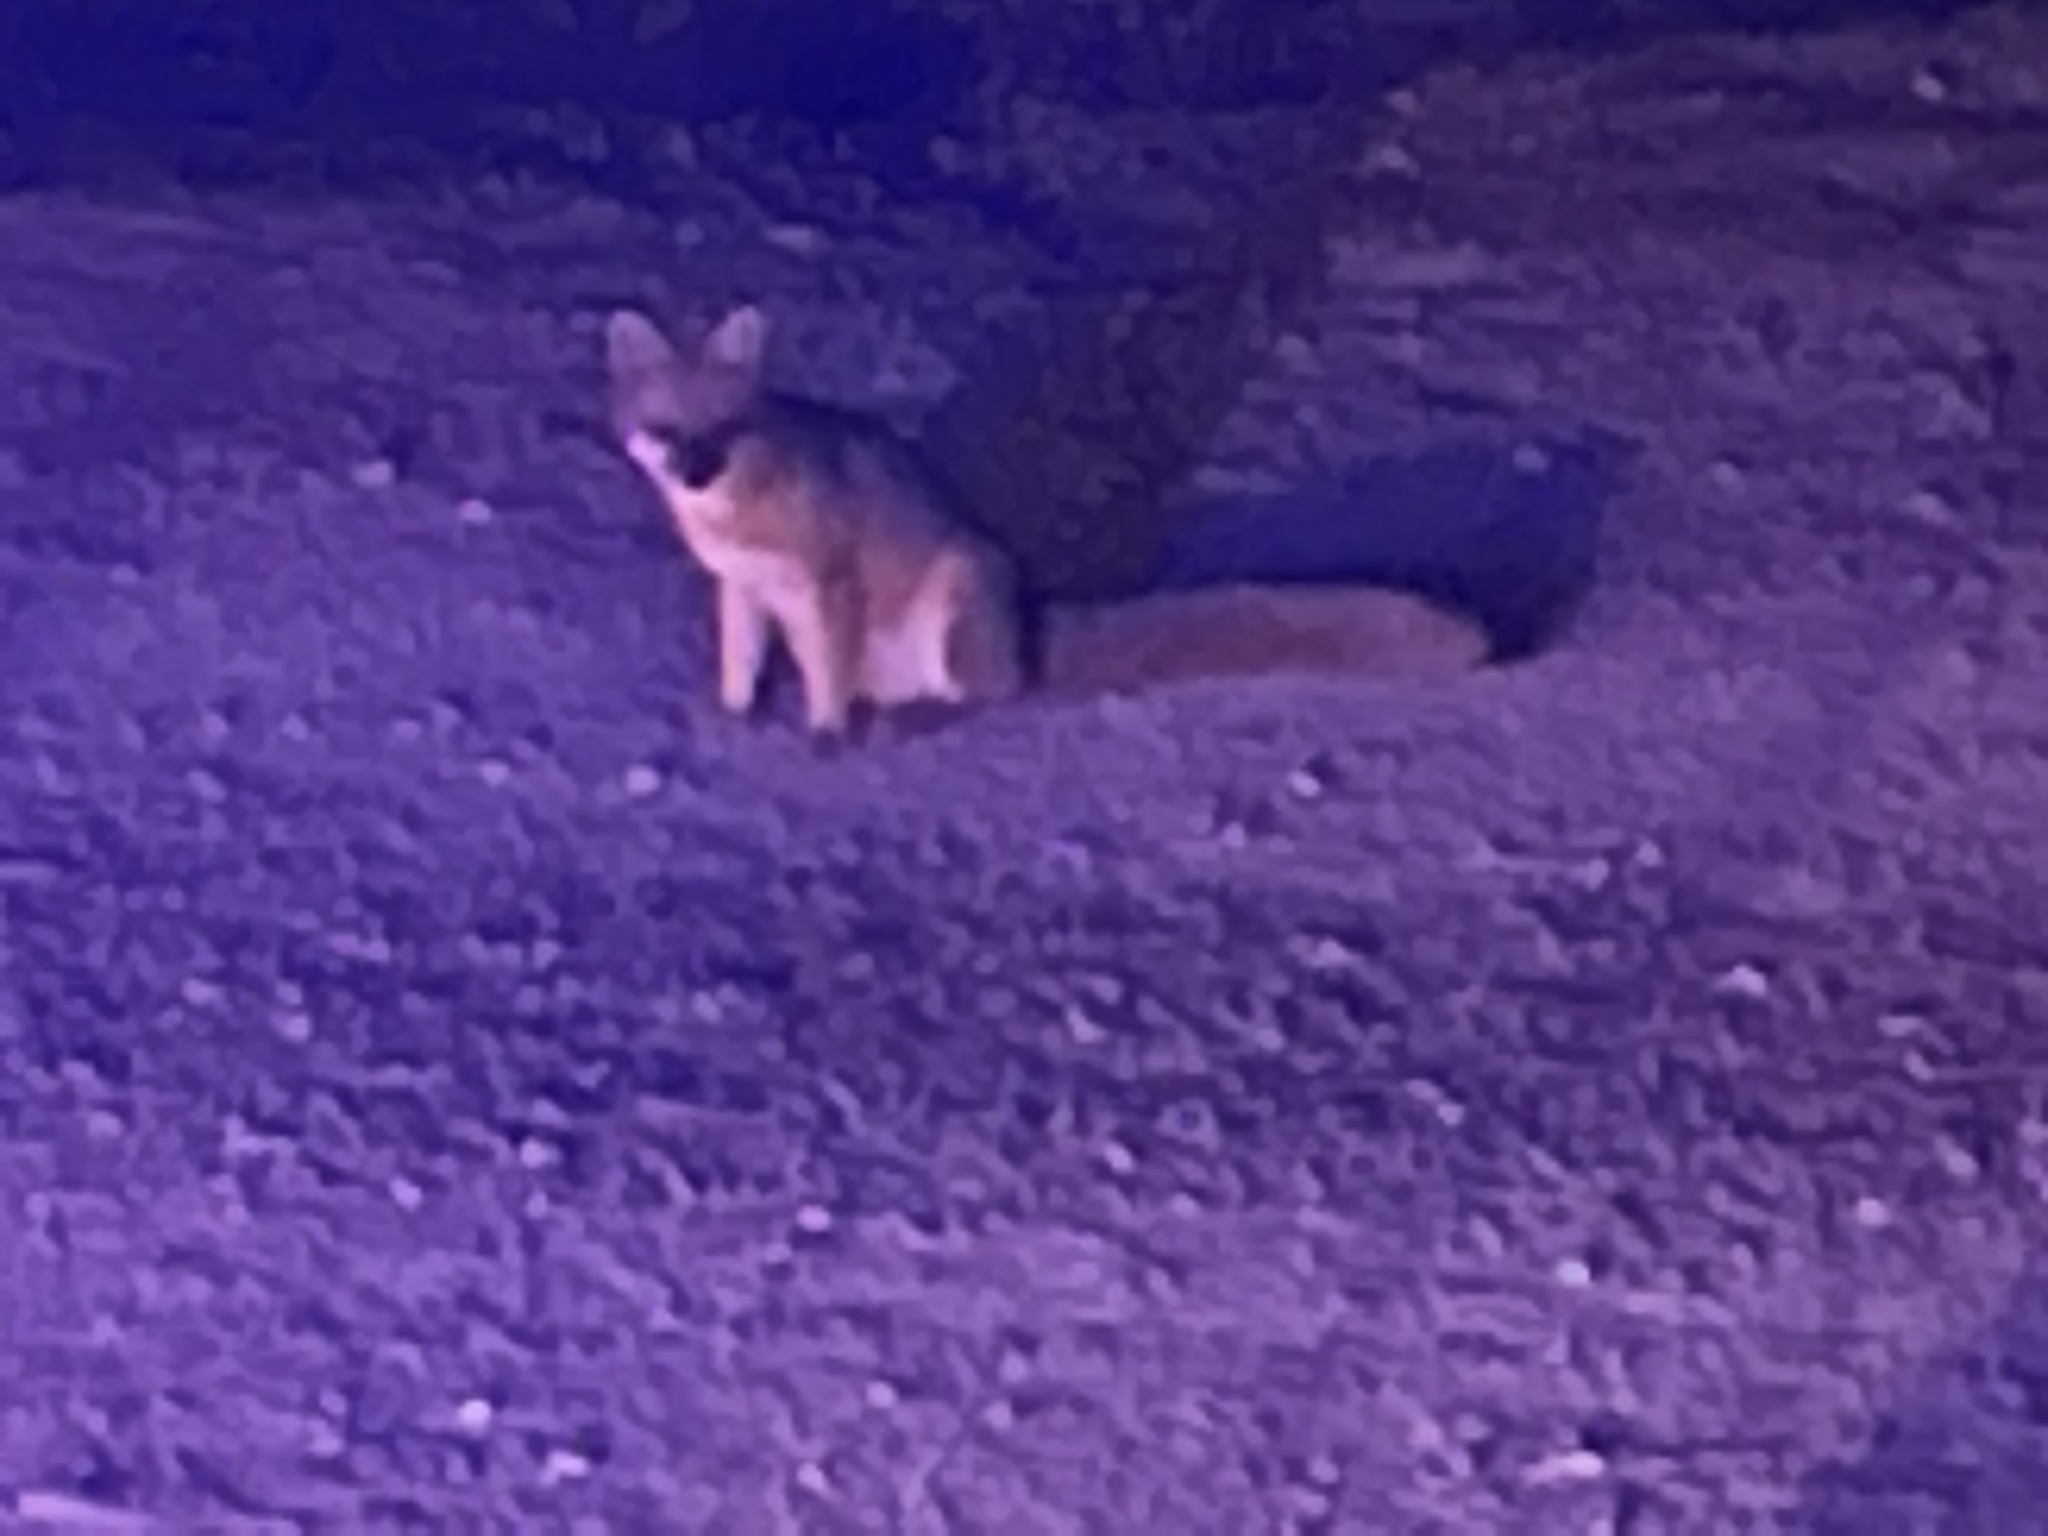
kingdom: Animalia
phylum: Chordata
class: Mammalia
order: Carnivora
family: Canidae
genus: Urocyon
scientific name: Urocyon cinereoargenteus
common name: Gray fox
